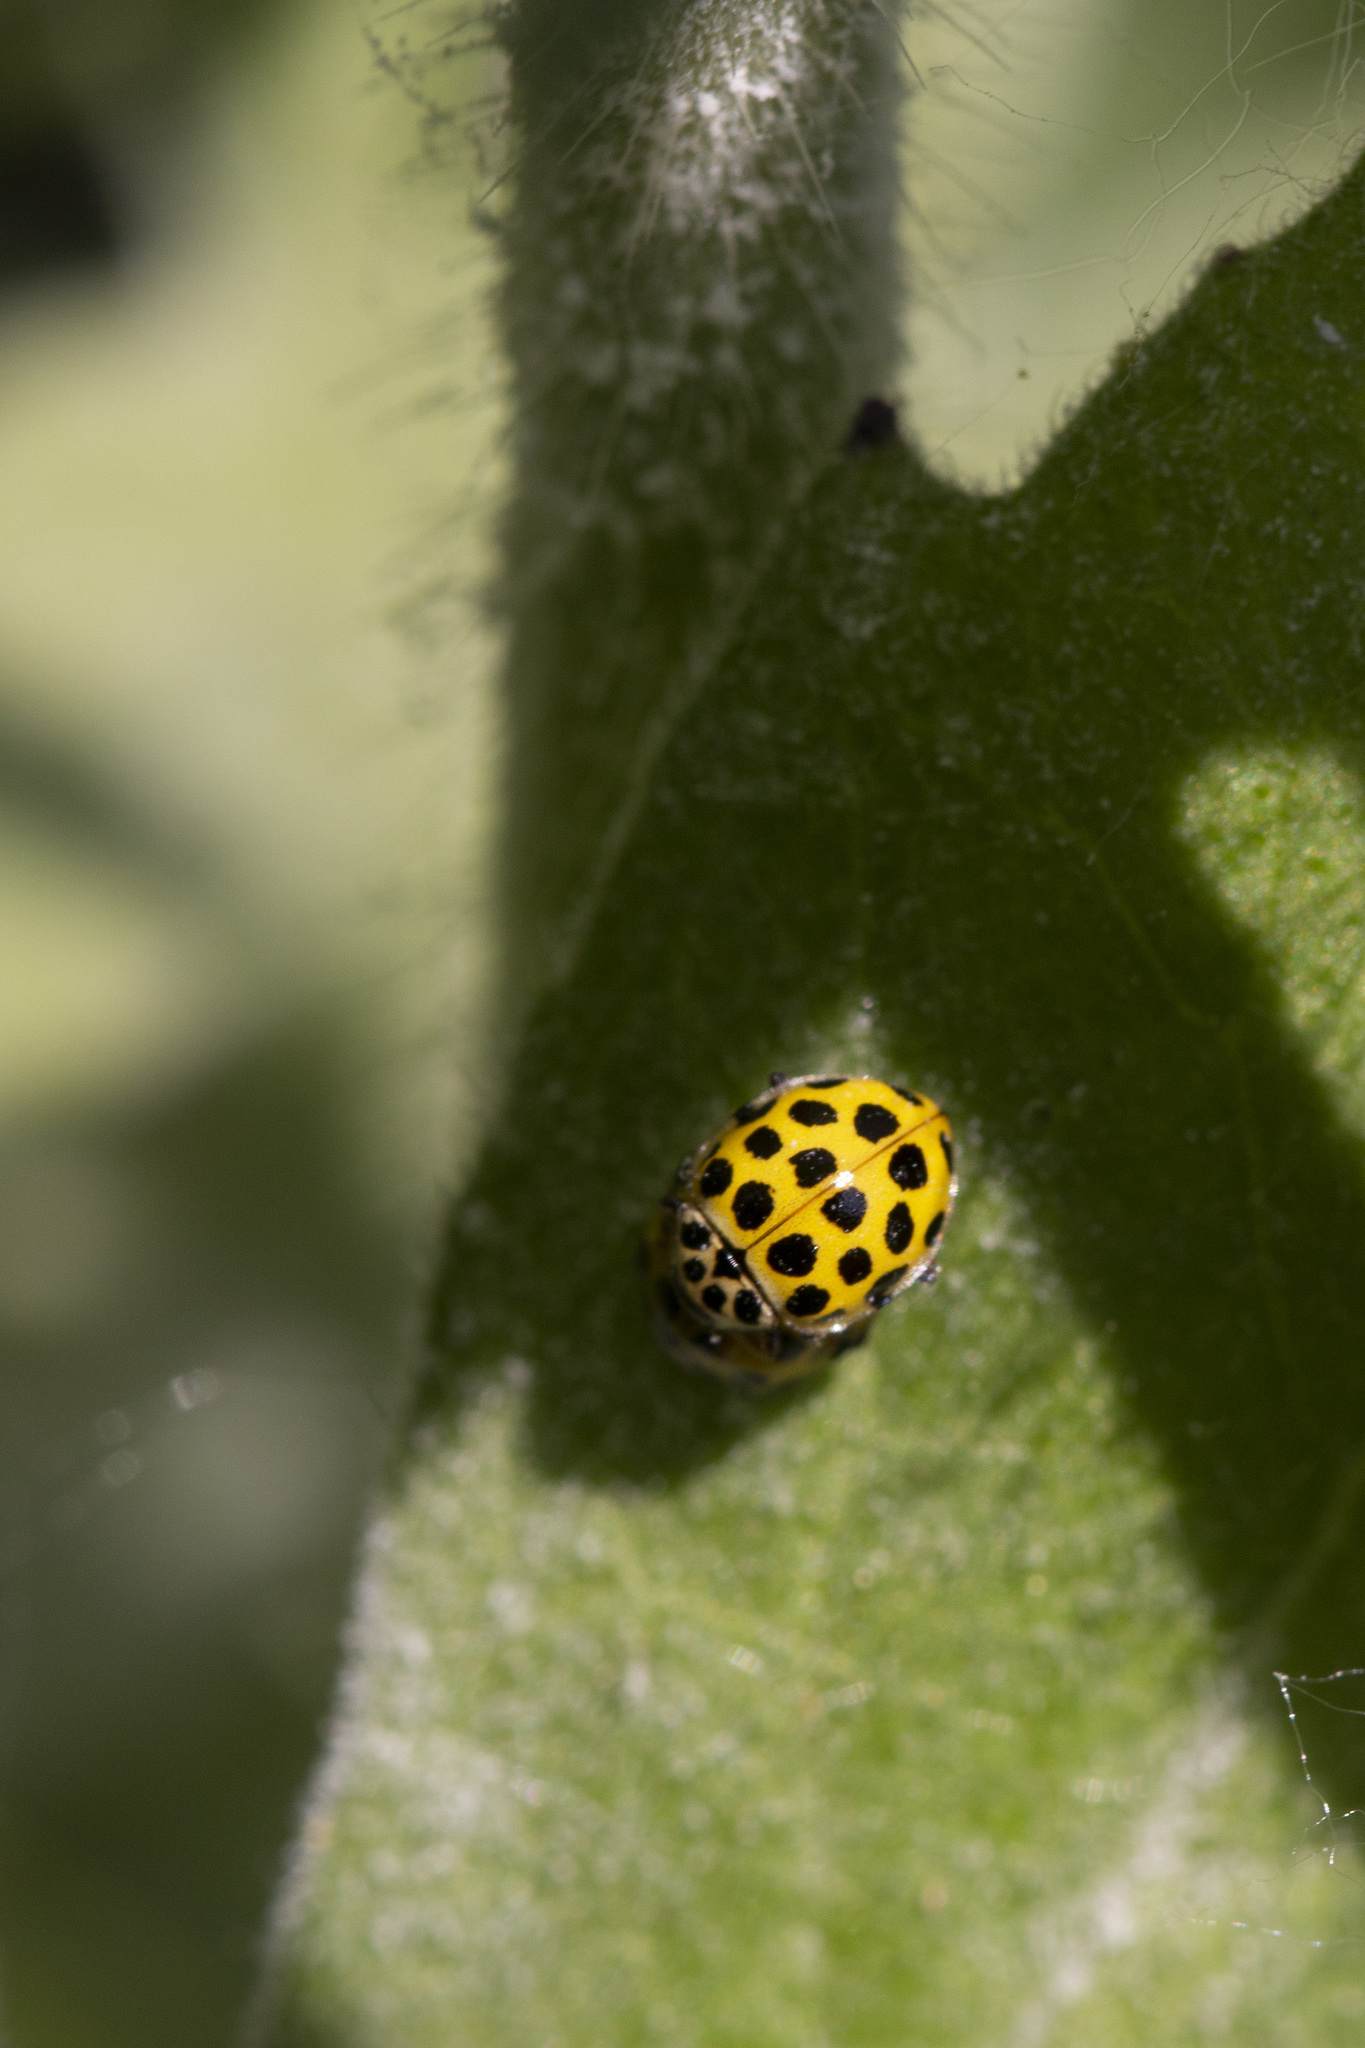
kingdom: Animalia
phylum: Arthropoda
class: Insecta
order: Coleoptera
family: Coccinellidae
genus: Psyllobora
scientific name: Psyllobora vigintiduopunctata
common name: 22-spot ladybird
